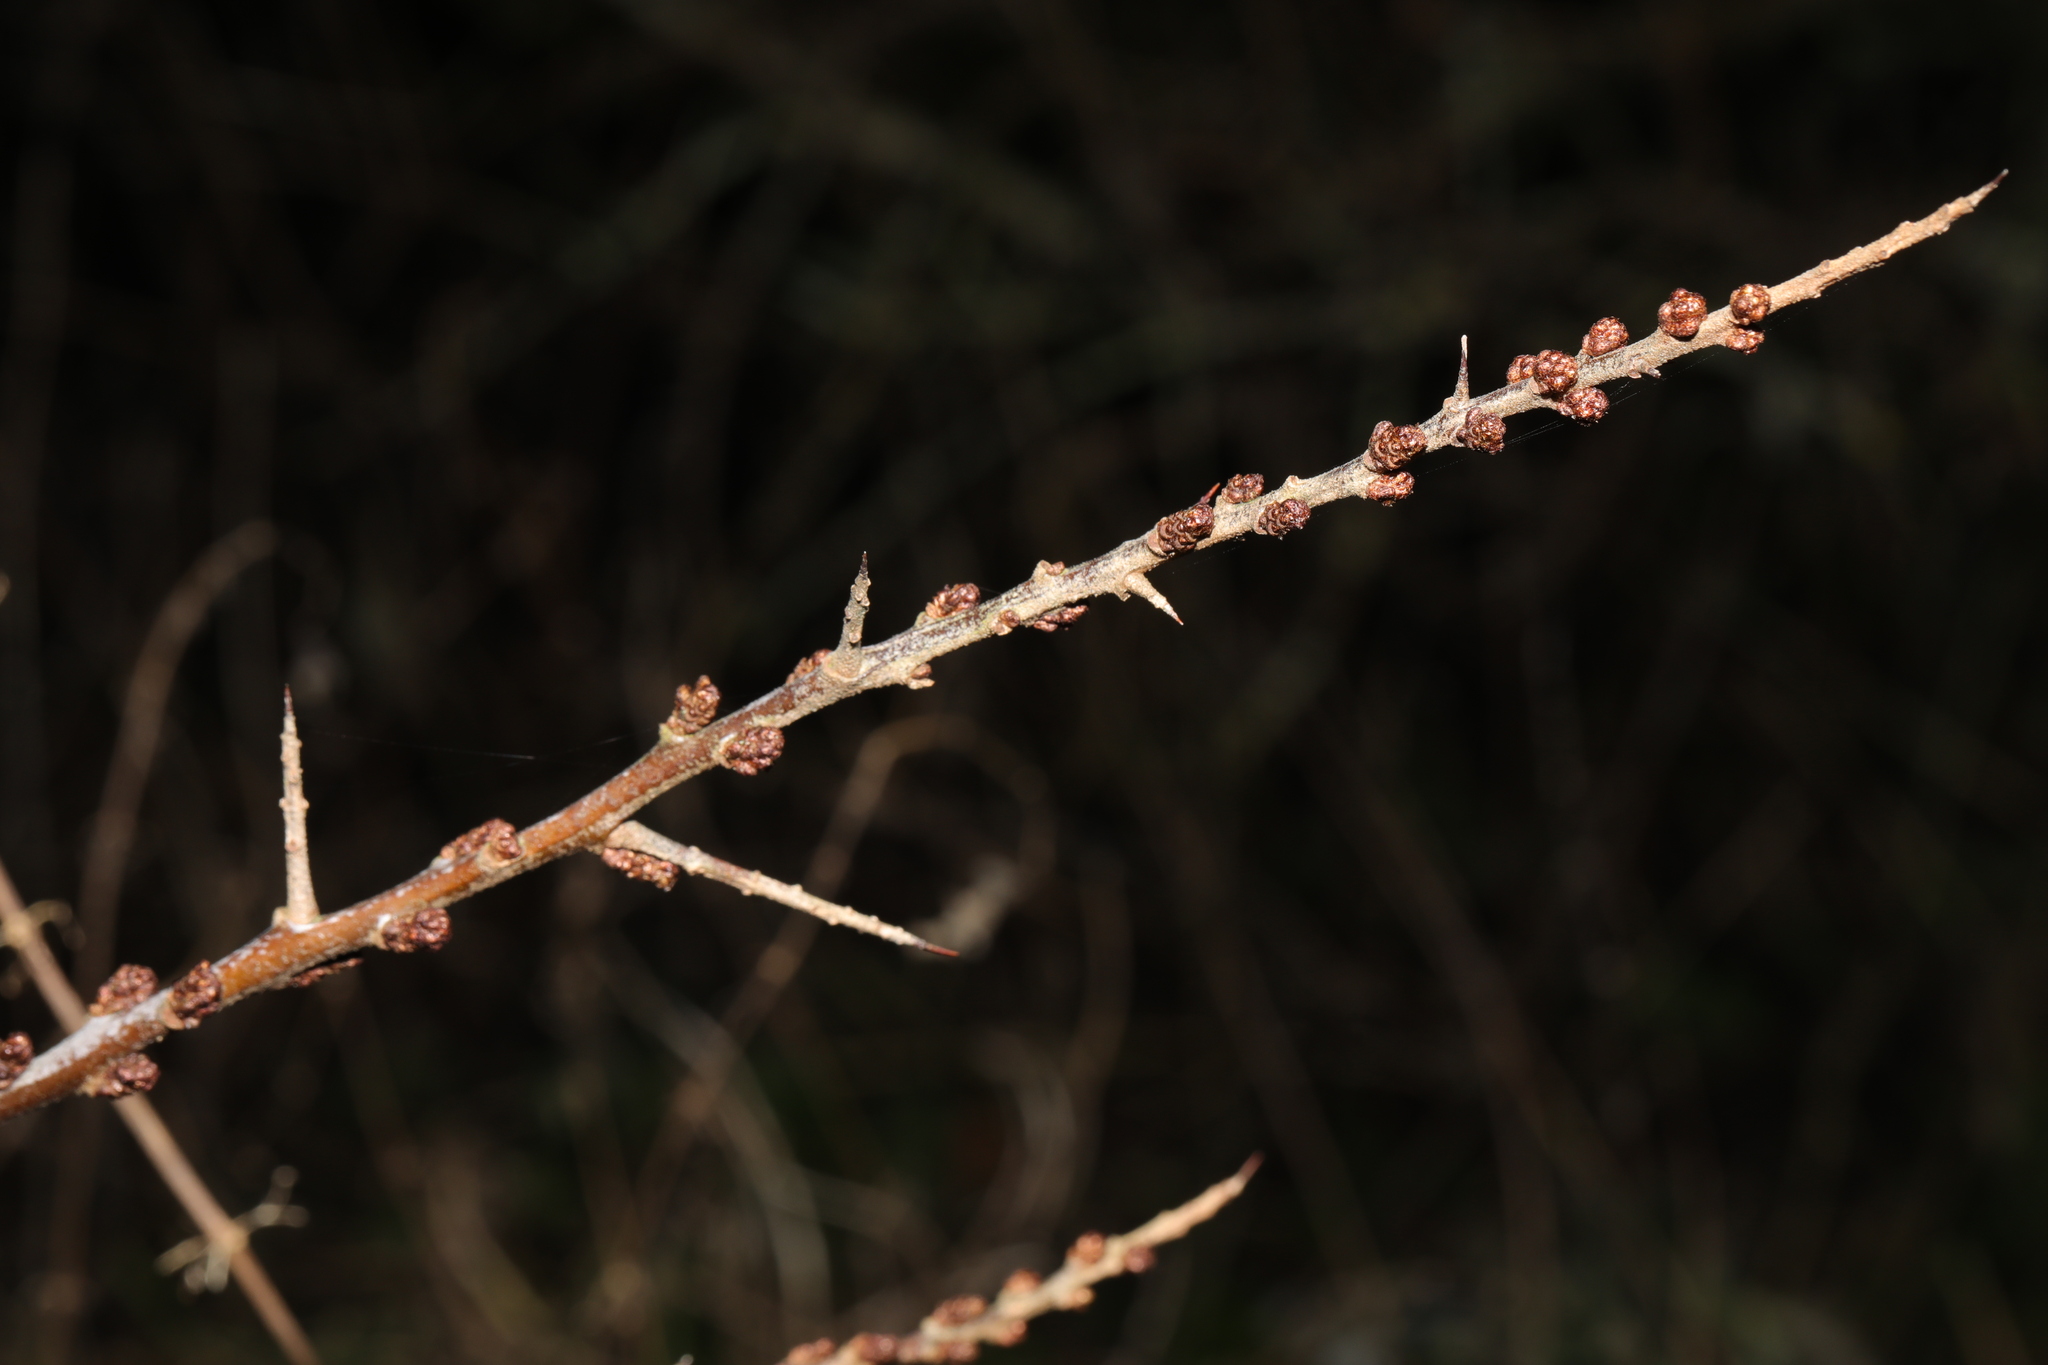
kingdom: Plantae
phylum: Tracheophyta
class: Magnoliopsida
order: Rosales
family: Elaeagnaceae
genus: Hippophae
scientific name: Hippophae rhamnoides
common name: Sea-buckthorn
